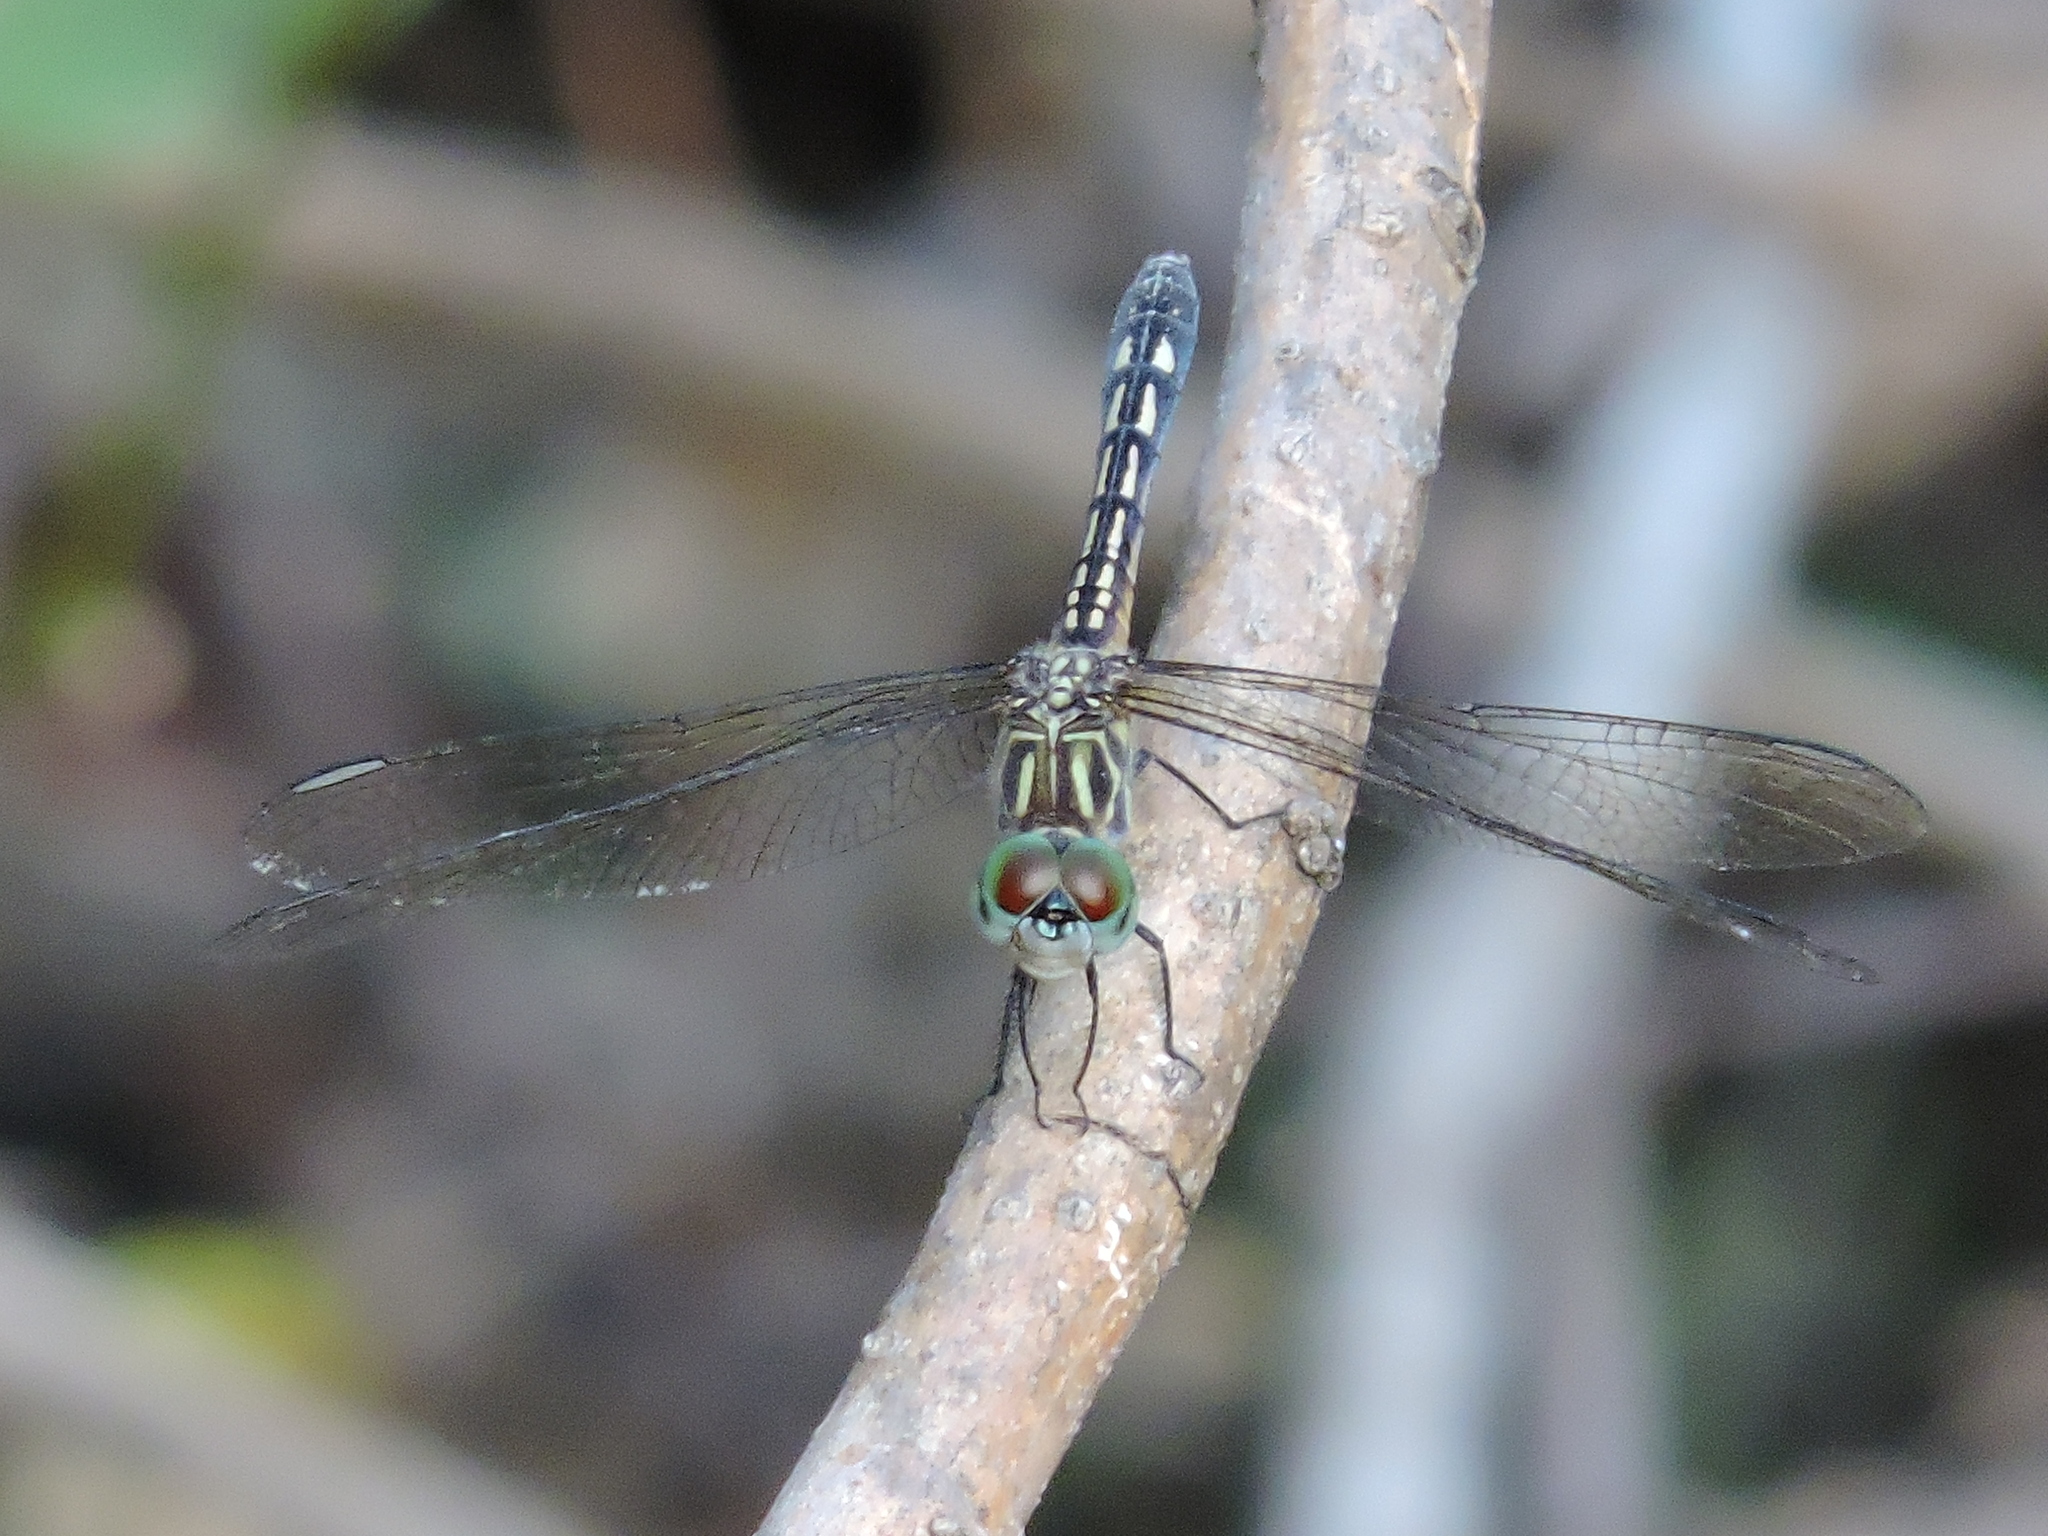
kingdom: Animalia
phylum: Arthropoda
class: Insecta
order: Odonata
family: Libellulidae
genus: Pachydiplax
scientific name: Pachydiplax longipennis
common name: Blue dasher
